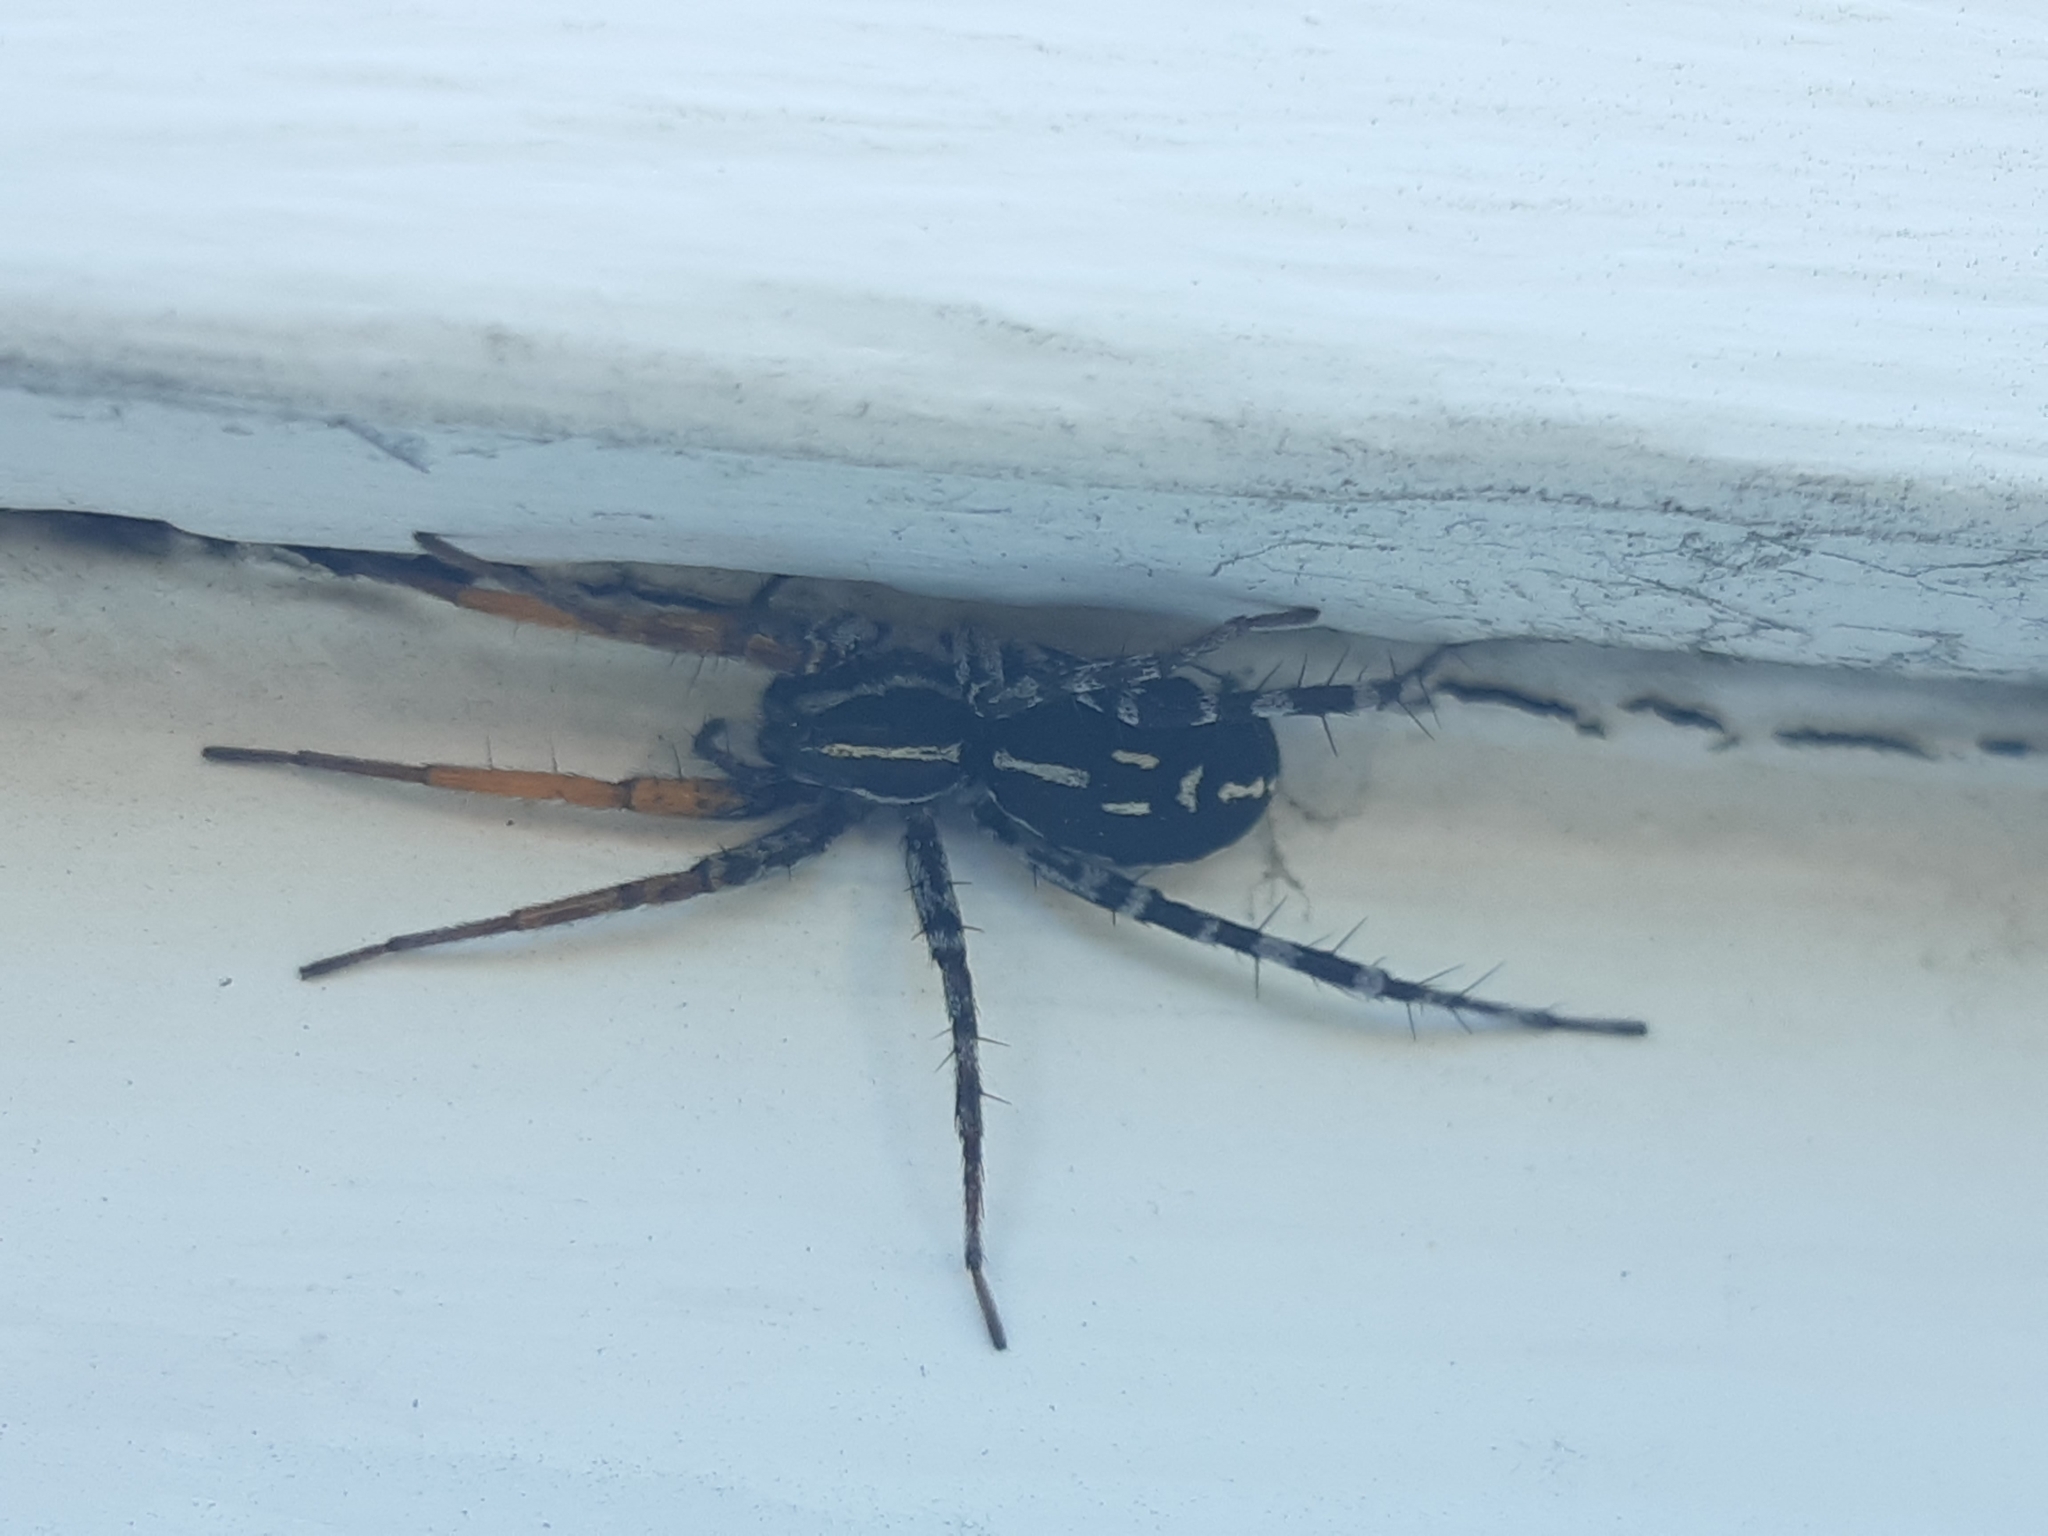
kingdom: Animalia
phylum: Arthropoda
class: Arachnida
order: Araneae
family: Corinnidae
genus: Nyssus
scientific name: Nyssus coloripes
